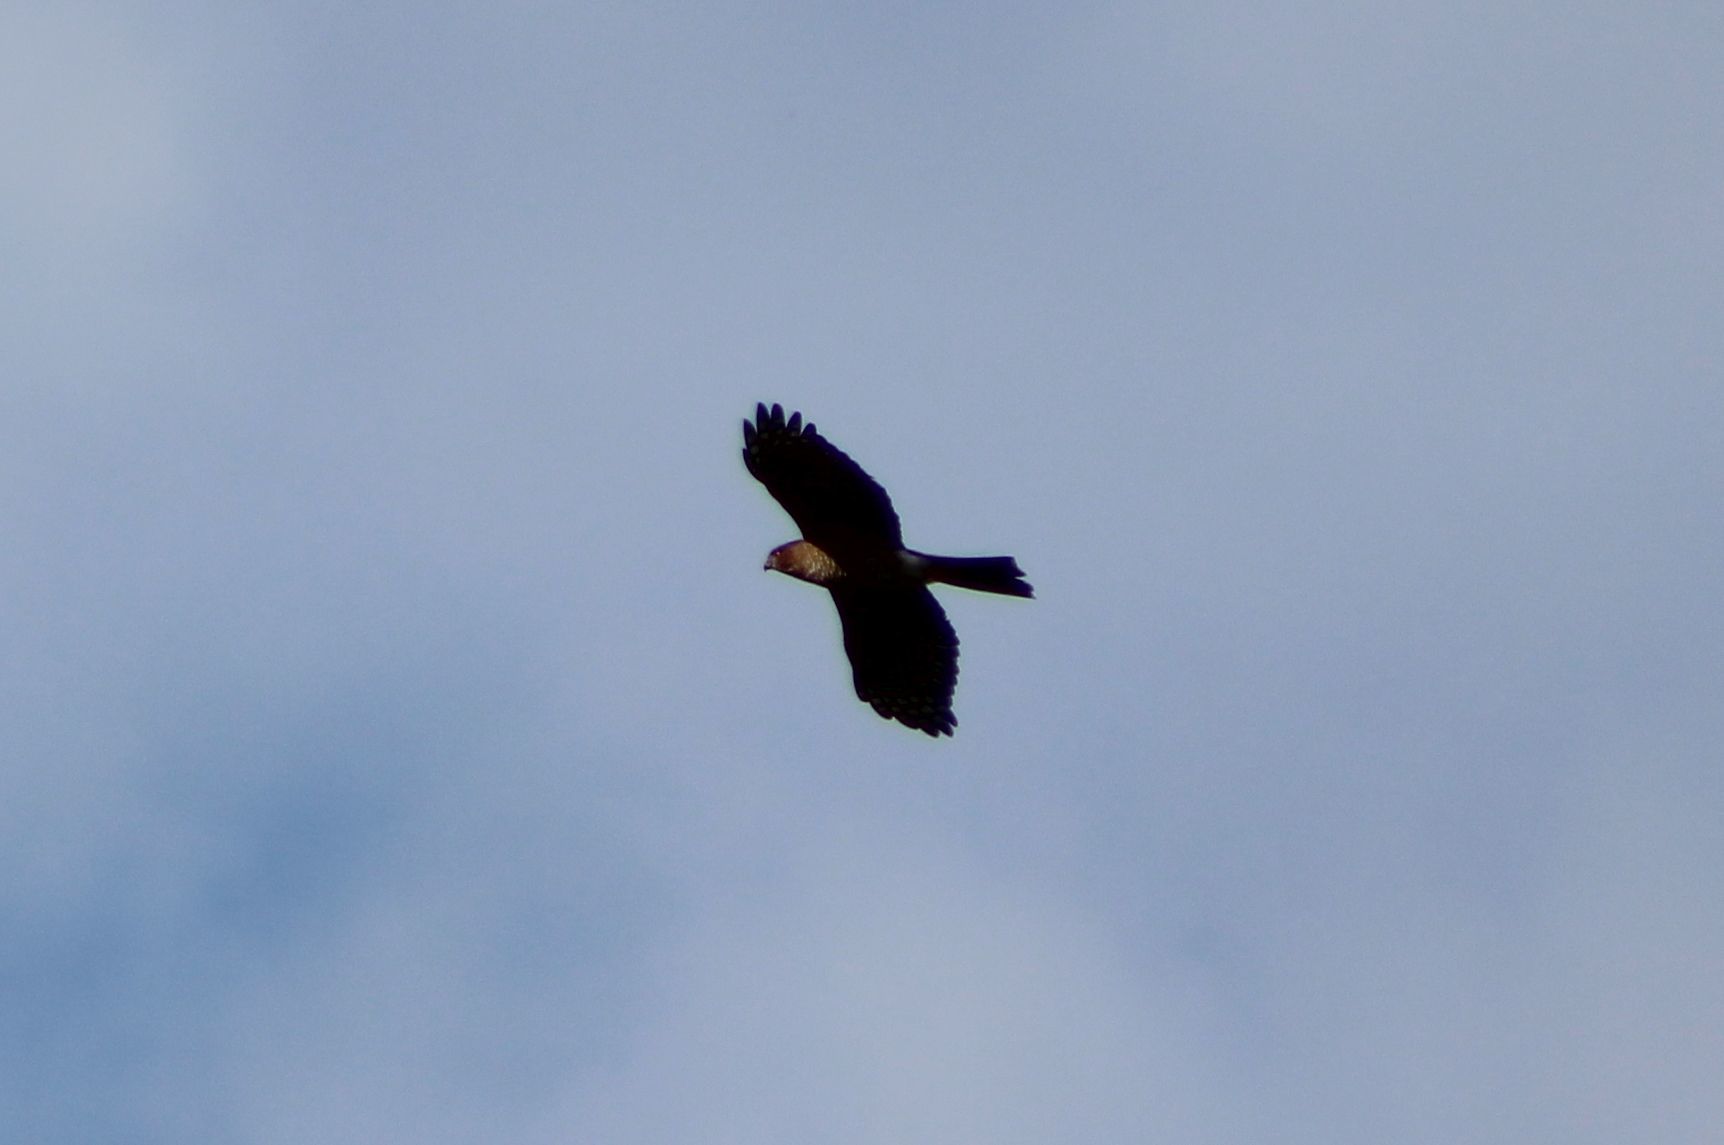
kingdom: Animalia
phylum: Chordata
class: Aves
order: Accipitriformes
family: Accipitridae
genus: Accipiter
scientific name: Accipiter striatus
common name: Sharp-shinned hawk
